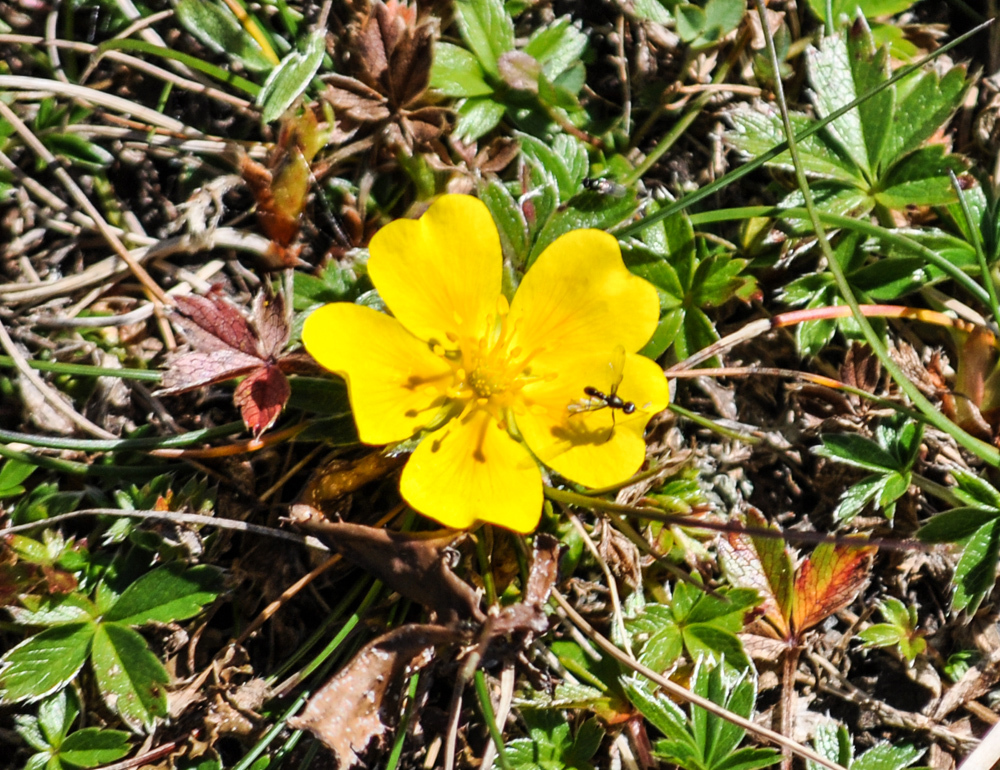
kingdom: Plantae
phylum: Tracheophyta
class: Magnoliopsida
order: Rosales
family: Rosaceae
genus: Potentilla
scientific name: Potentilla aurea
